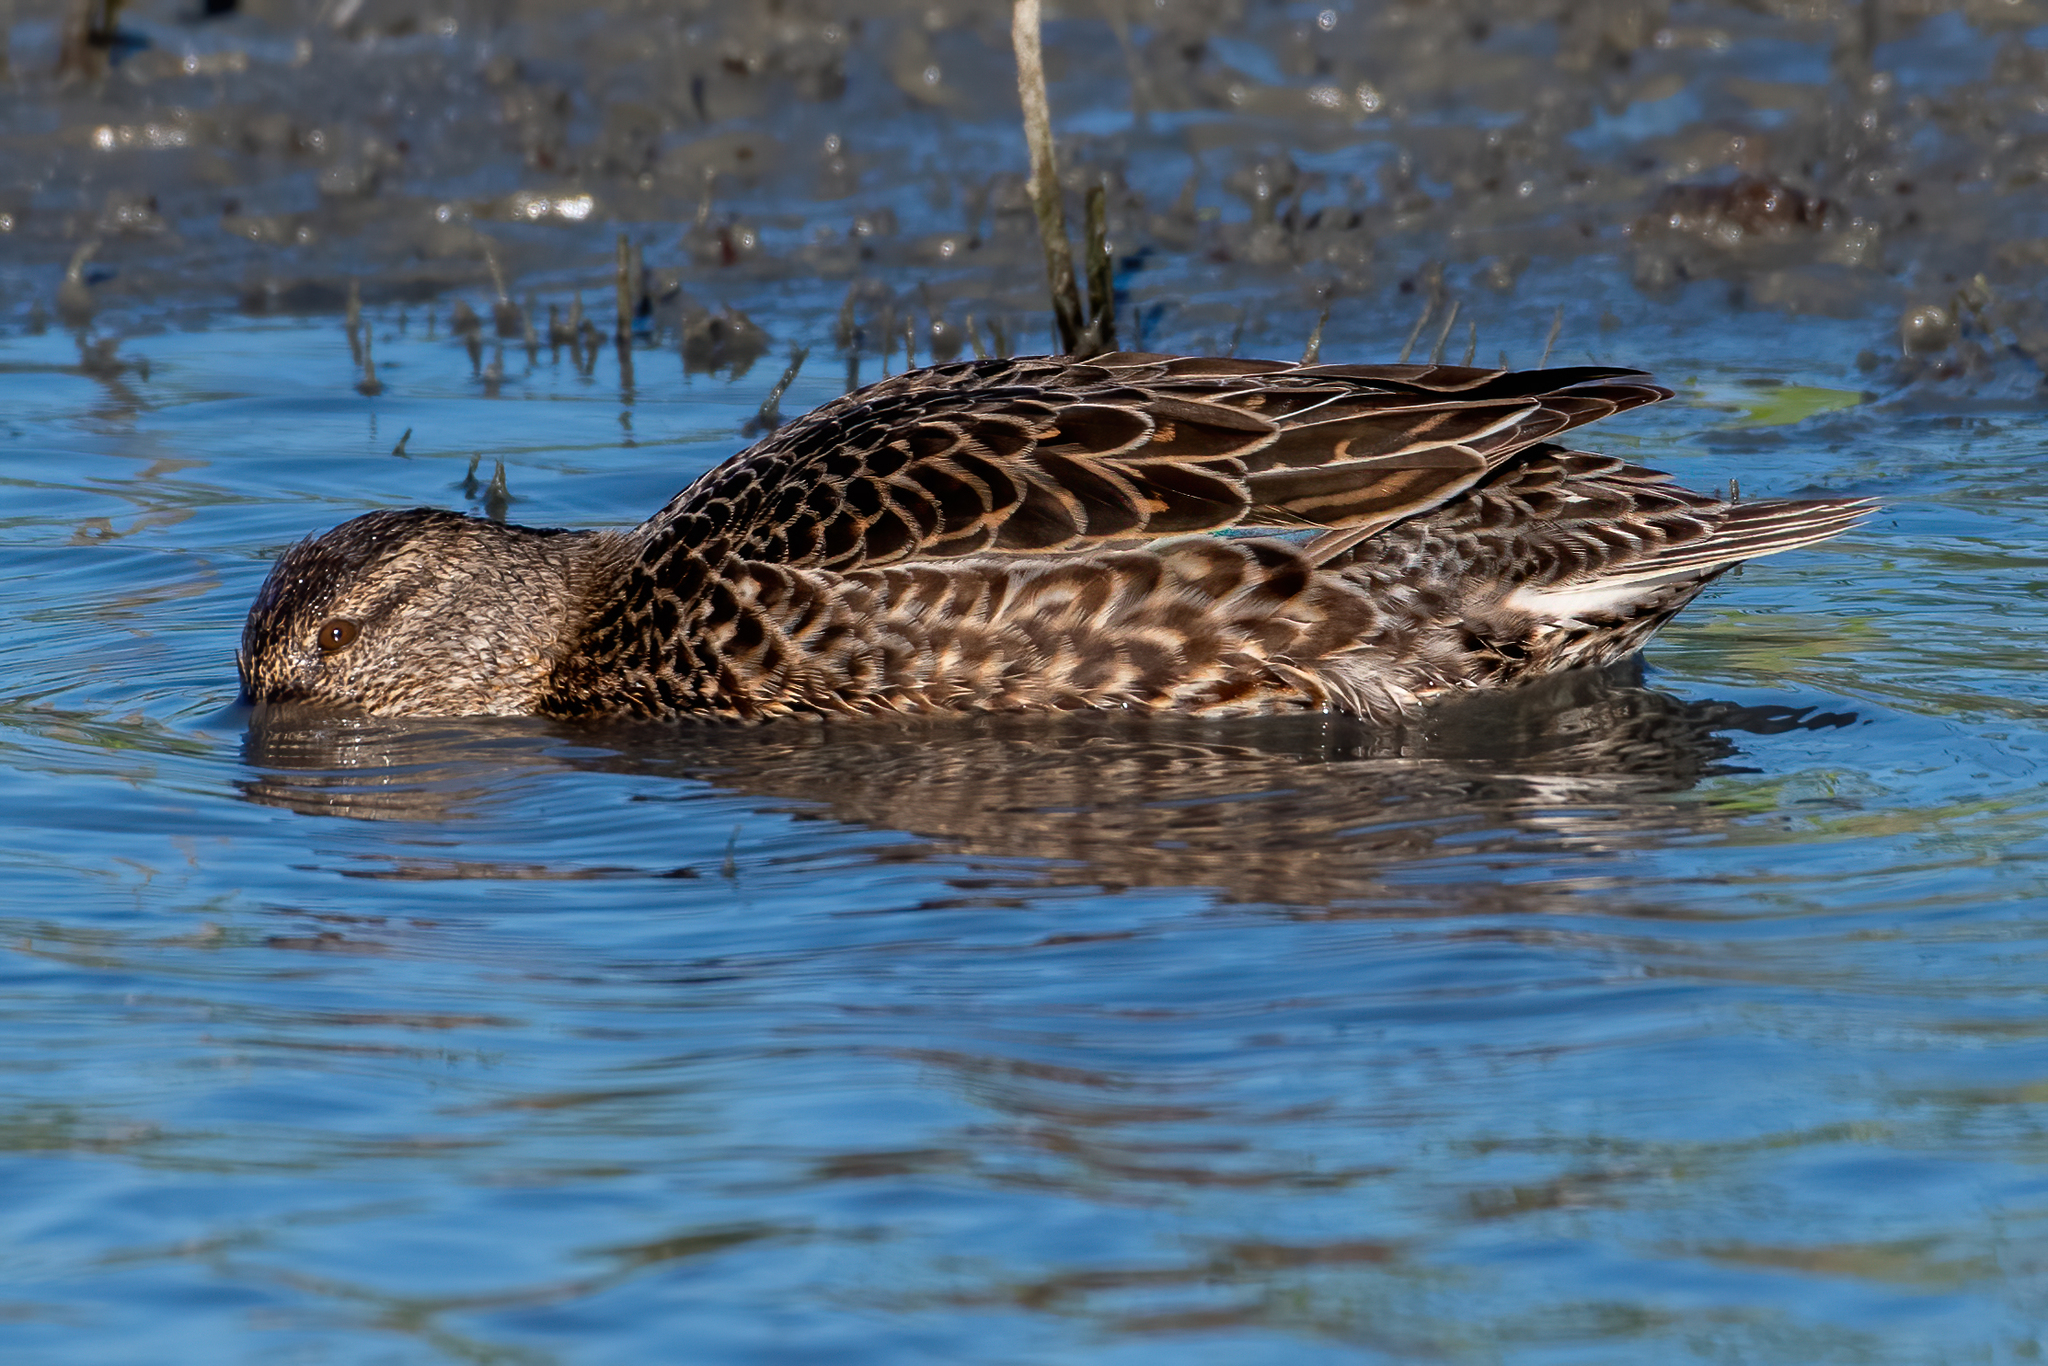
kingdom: Animalia
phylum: Chordata
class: Aves
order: Anseriformes
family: Anatidae
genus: Spatula
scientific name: Spatula clypeata
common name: Northern shoveler
